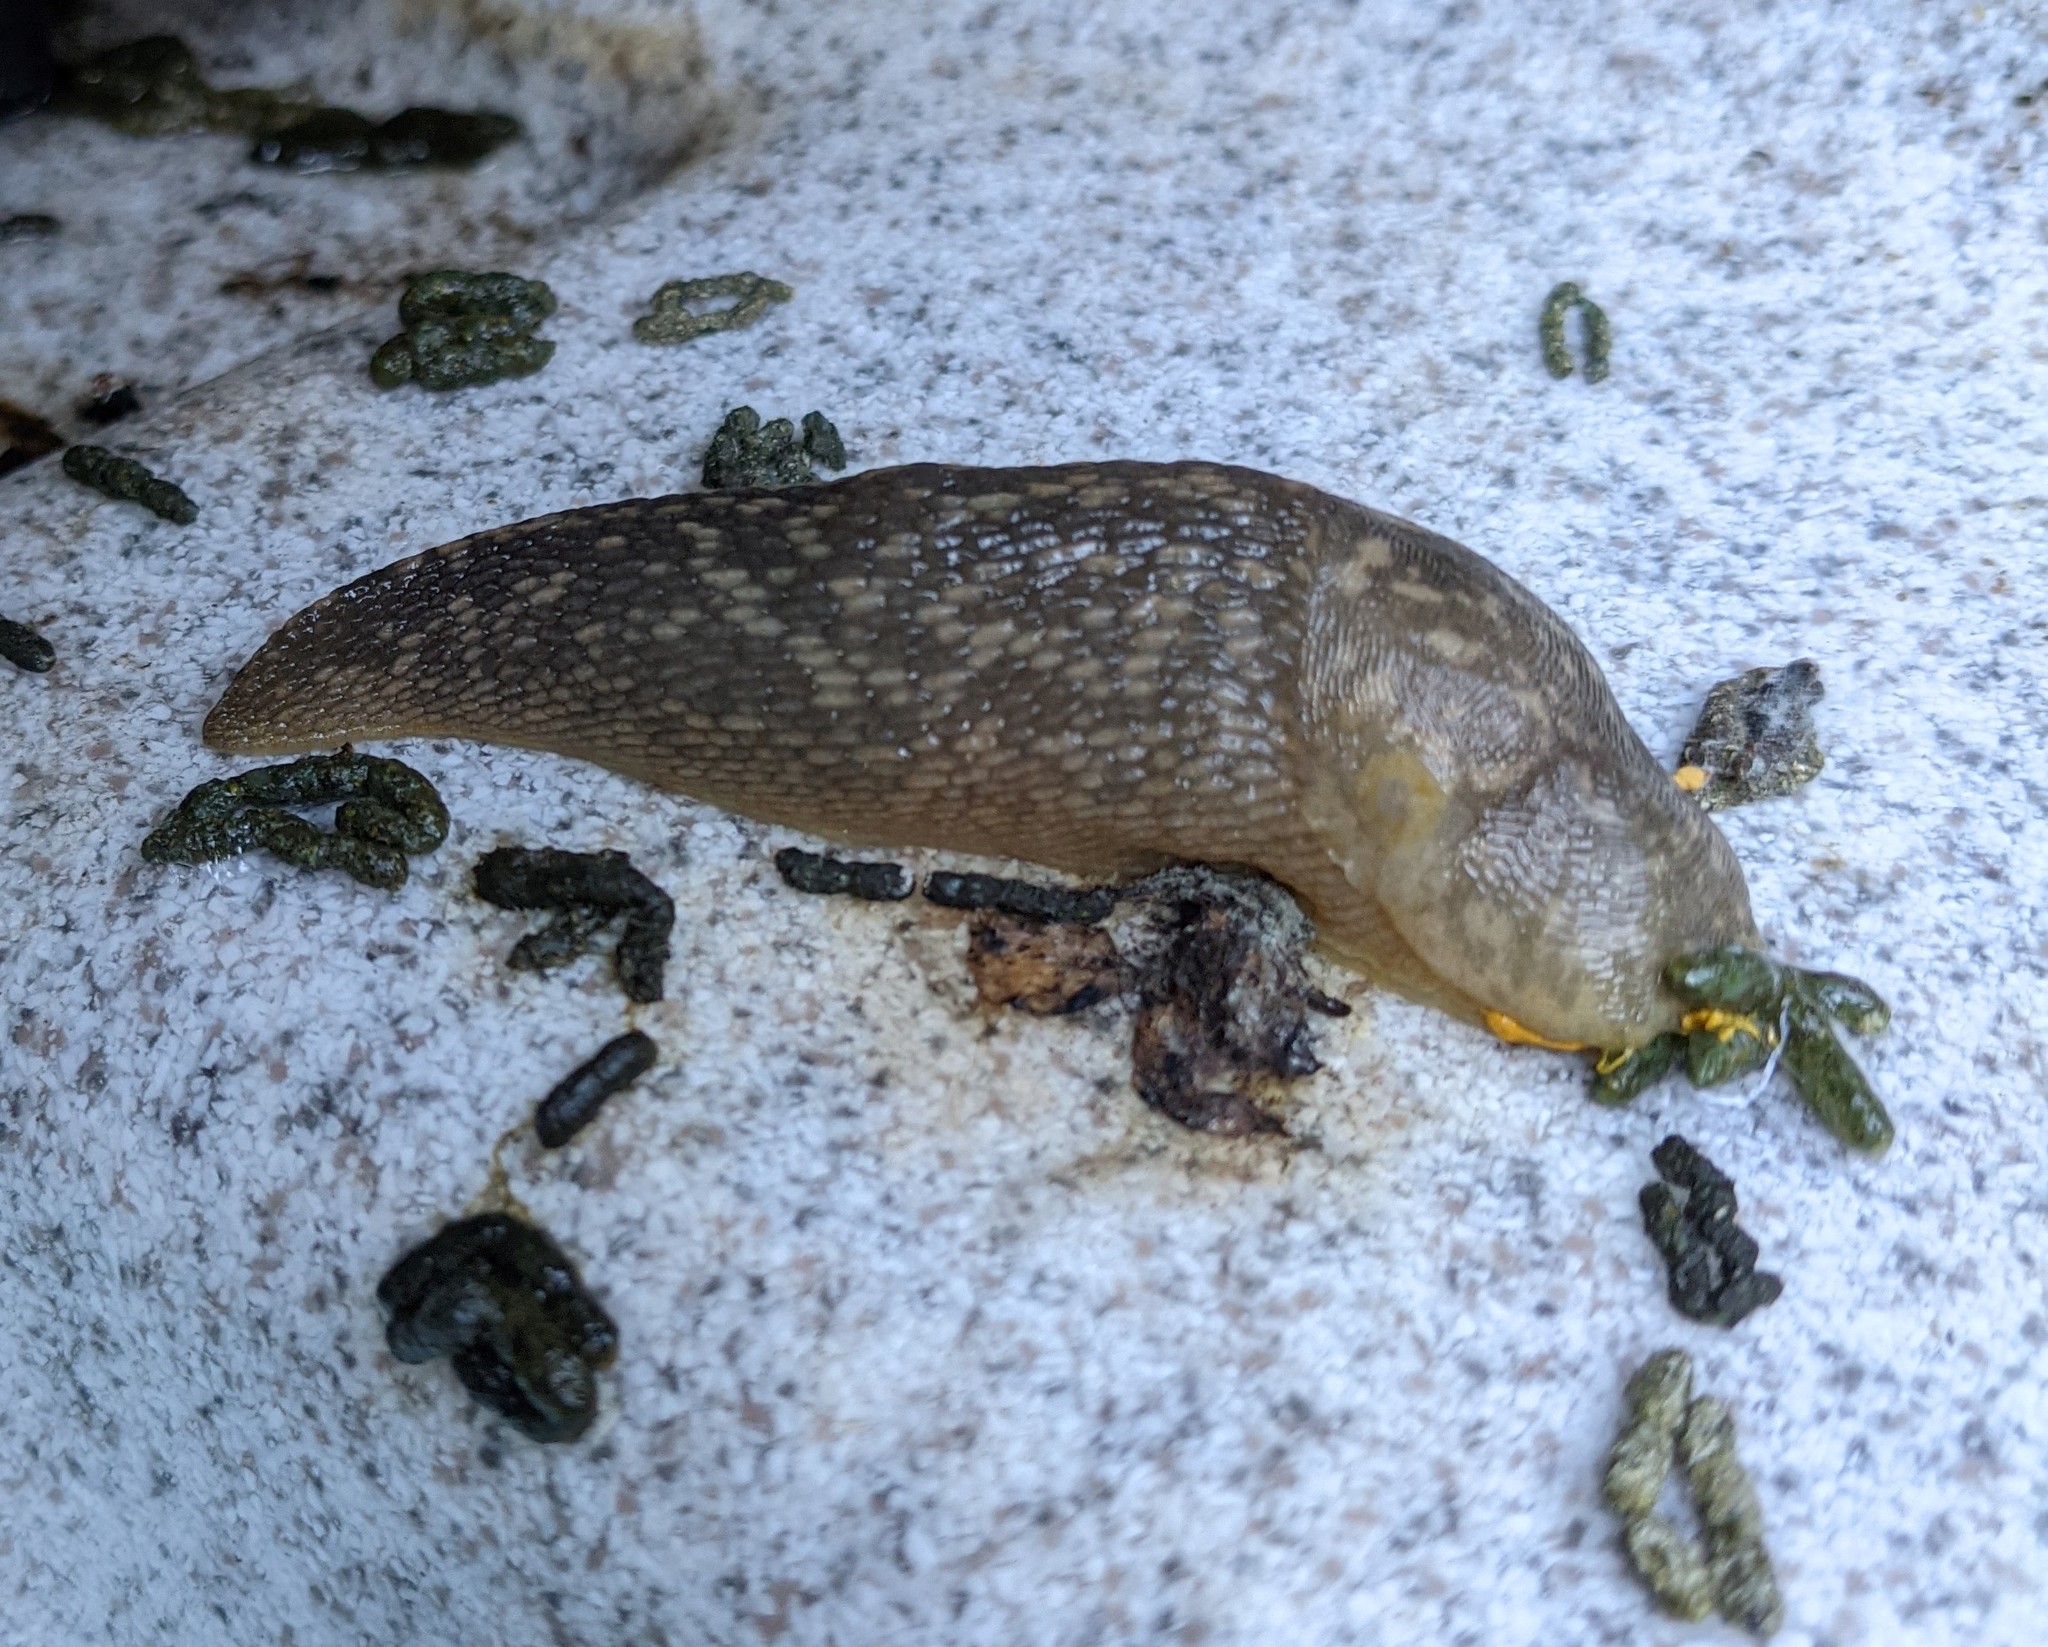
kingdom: Animalia
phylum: Mollusca
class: Gastropoda
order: Stylommatophora
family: Limacidae
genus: Limacus
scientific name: Limacus flavus
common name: Yellow gardenslug
